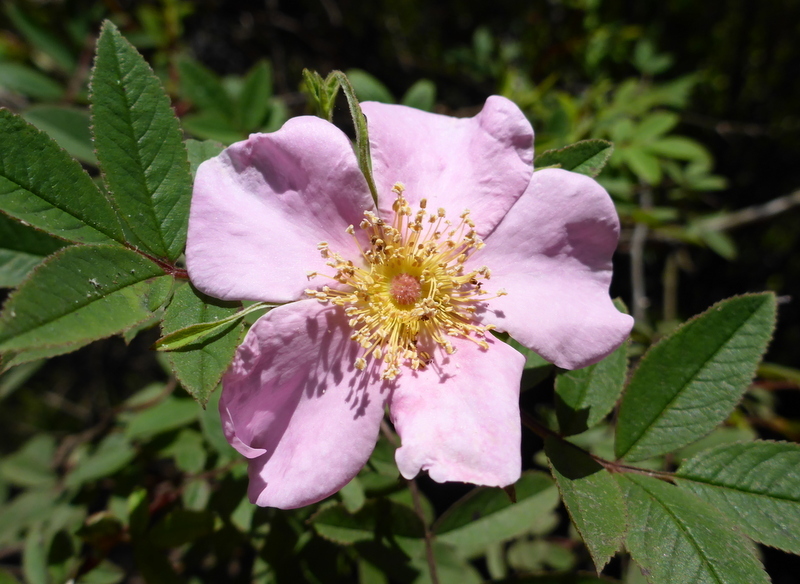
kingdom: Plantae
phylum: Tracheophyta
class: Magnoliopsida
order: Rosales
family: Rosaceae
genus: Rosa
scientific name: Rosa palustris
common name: Swamp rose
